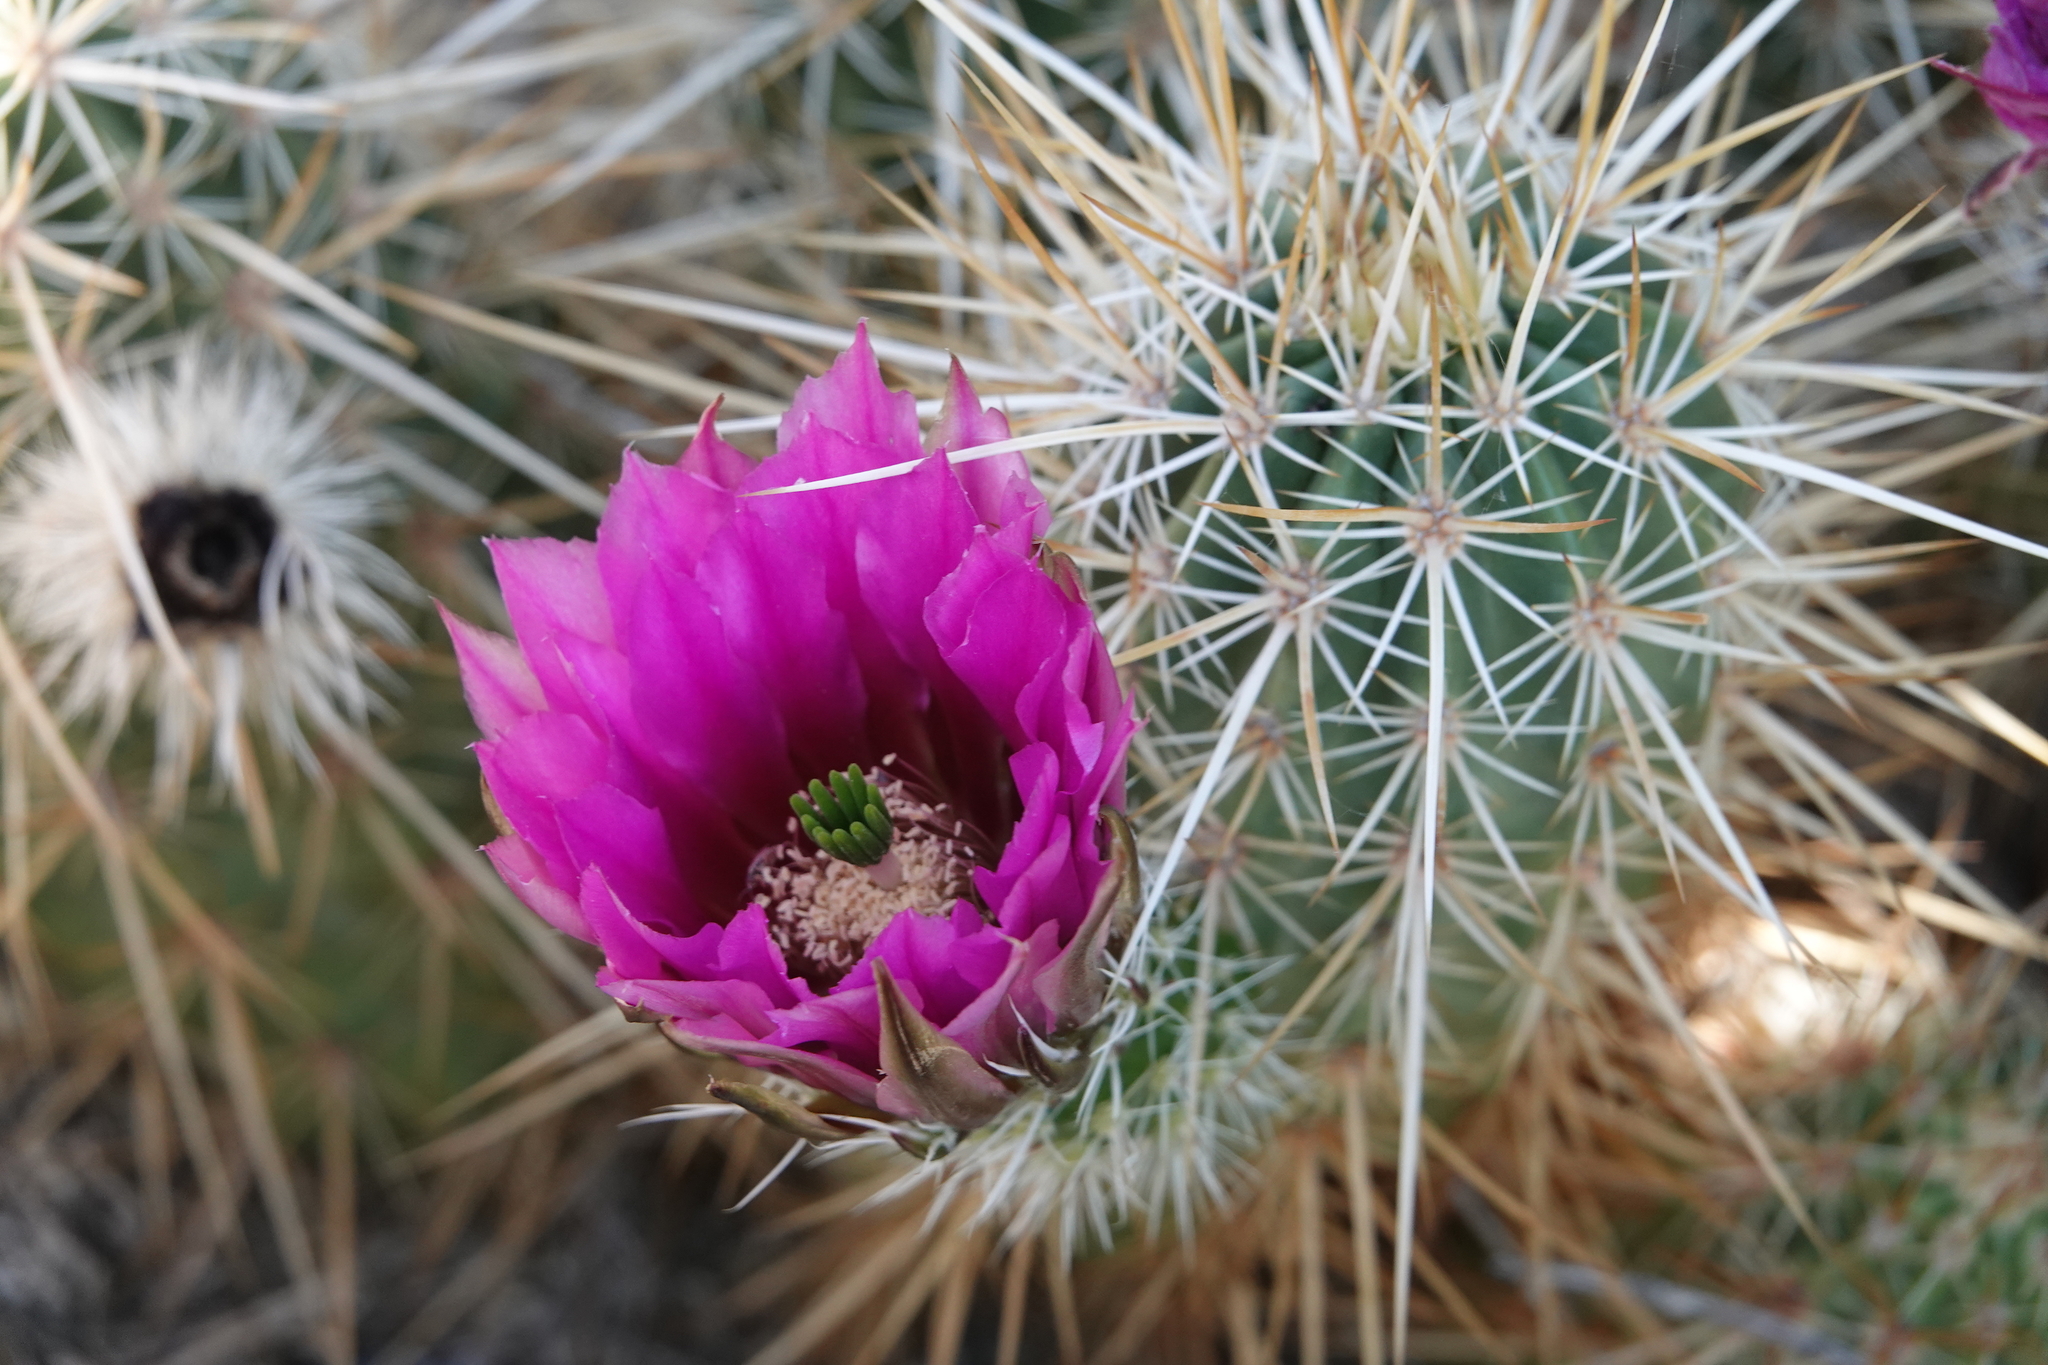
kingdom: Plantae
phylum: Tracheophyta
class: Magnoliopsida
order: Caryophyllales
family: Cactaceae
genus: Echinocereus
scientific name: Echinocereus engelmannii
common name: Engelmann's hedgehog cactus
